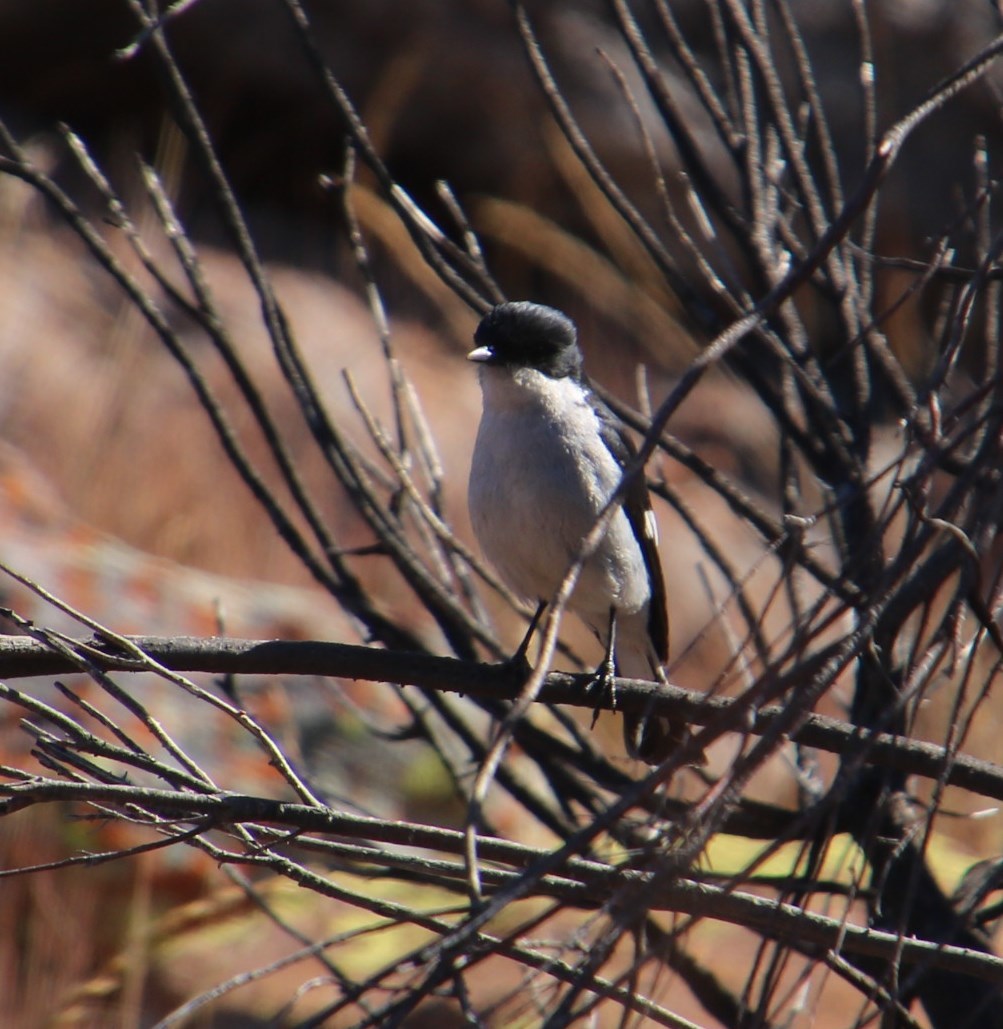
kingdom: Animalia
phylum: Chordata
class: Aves
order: Passeriformes
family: Muscicapidae
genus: Sigelus
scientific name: Sigelus silens
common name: Fiscal flycatcher
